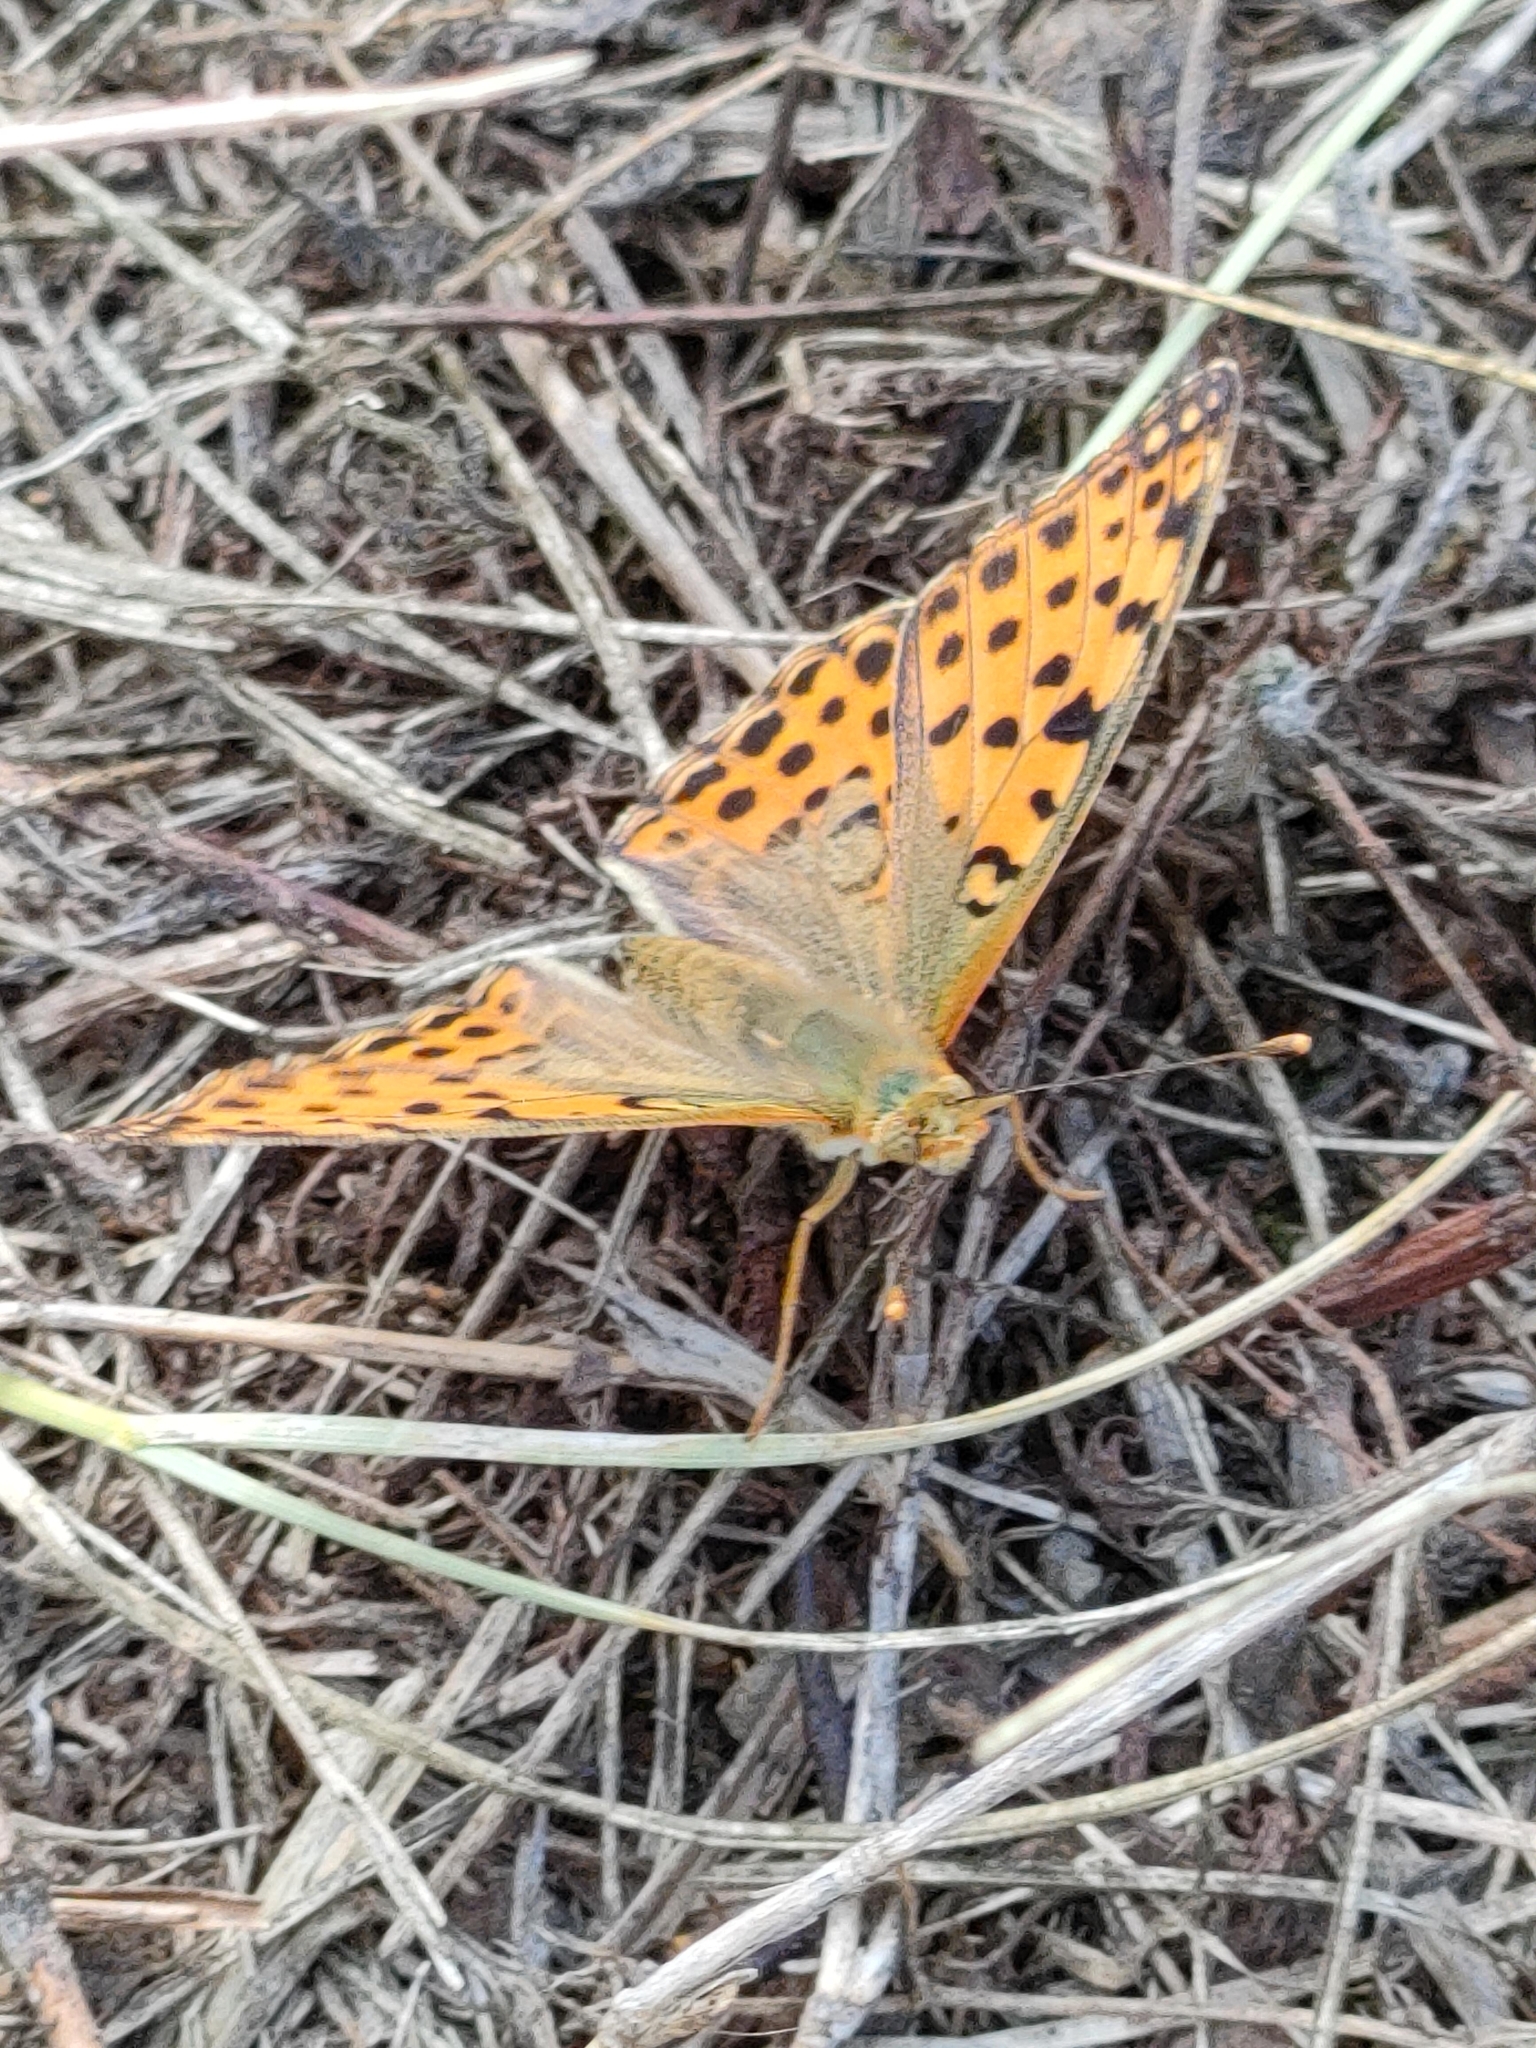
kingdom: Animalia
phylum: Arthropoda
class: Insecta
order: Lepidoptera
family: Nymphalidae
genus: Issoria
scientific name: Issoria lathonia
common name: Queen of spain fritillary
